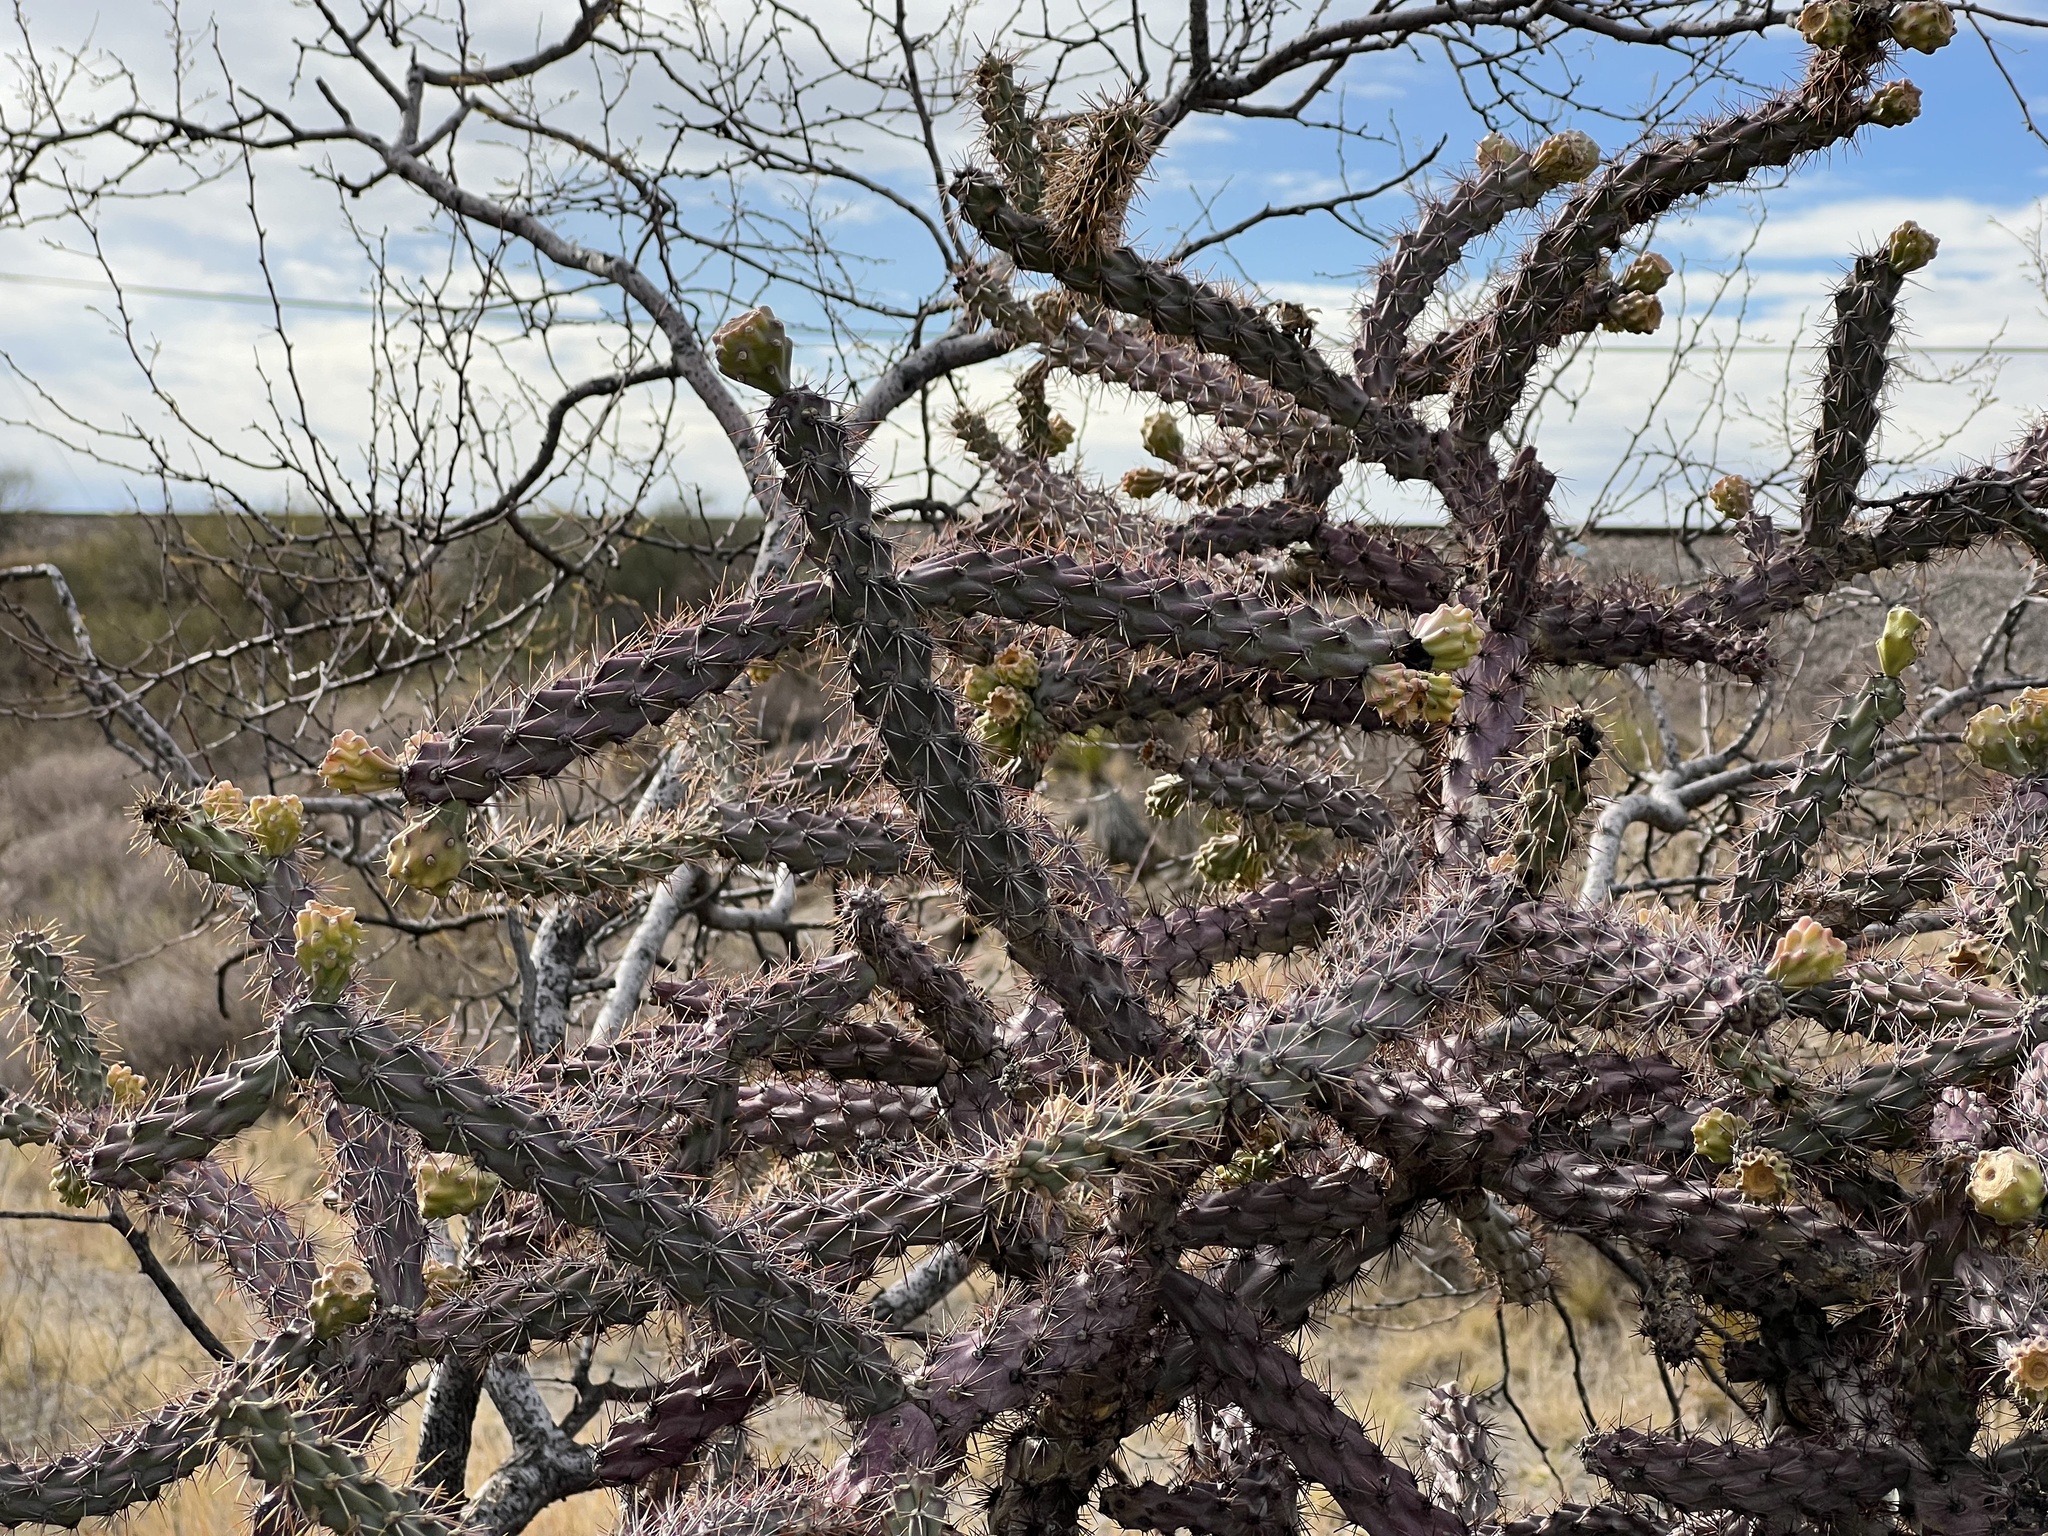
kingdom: Plantae
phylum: Tracheophyta
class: Magnoliopsida
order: Caryophyllales
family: Cactaceae
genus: Cylindropuntia
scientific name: Cylindropuntia thurberi
